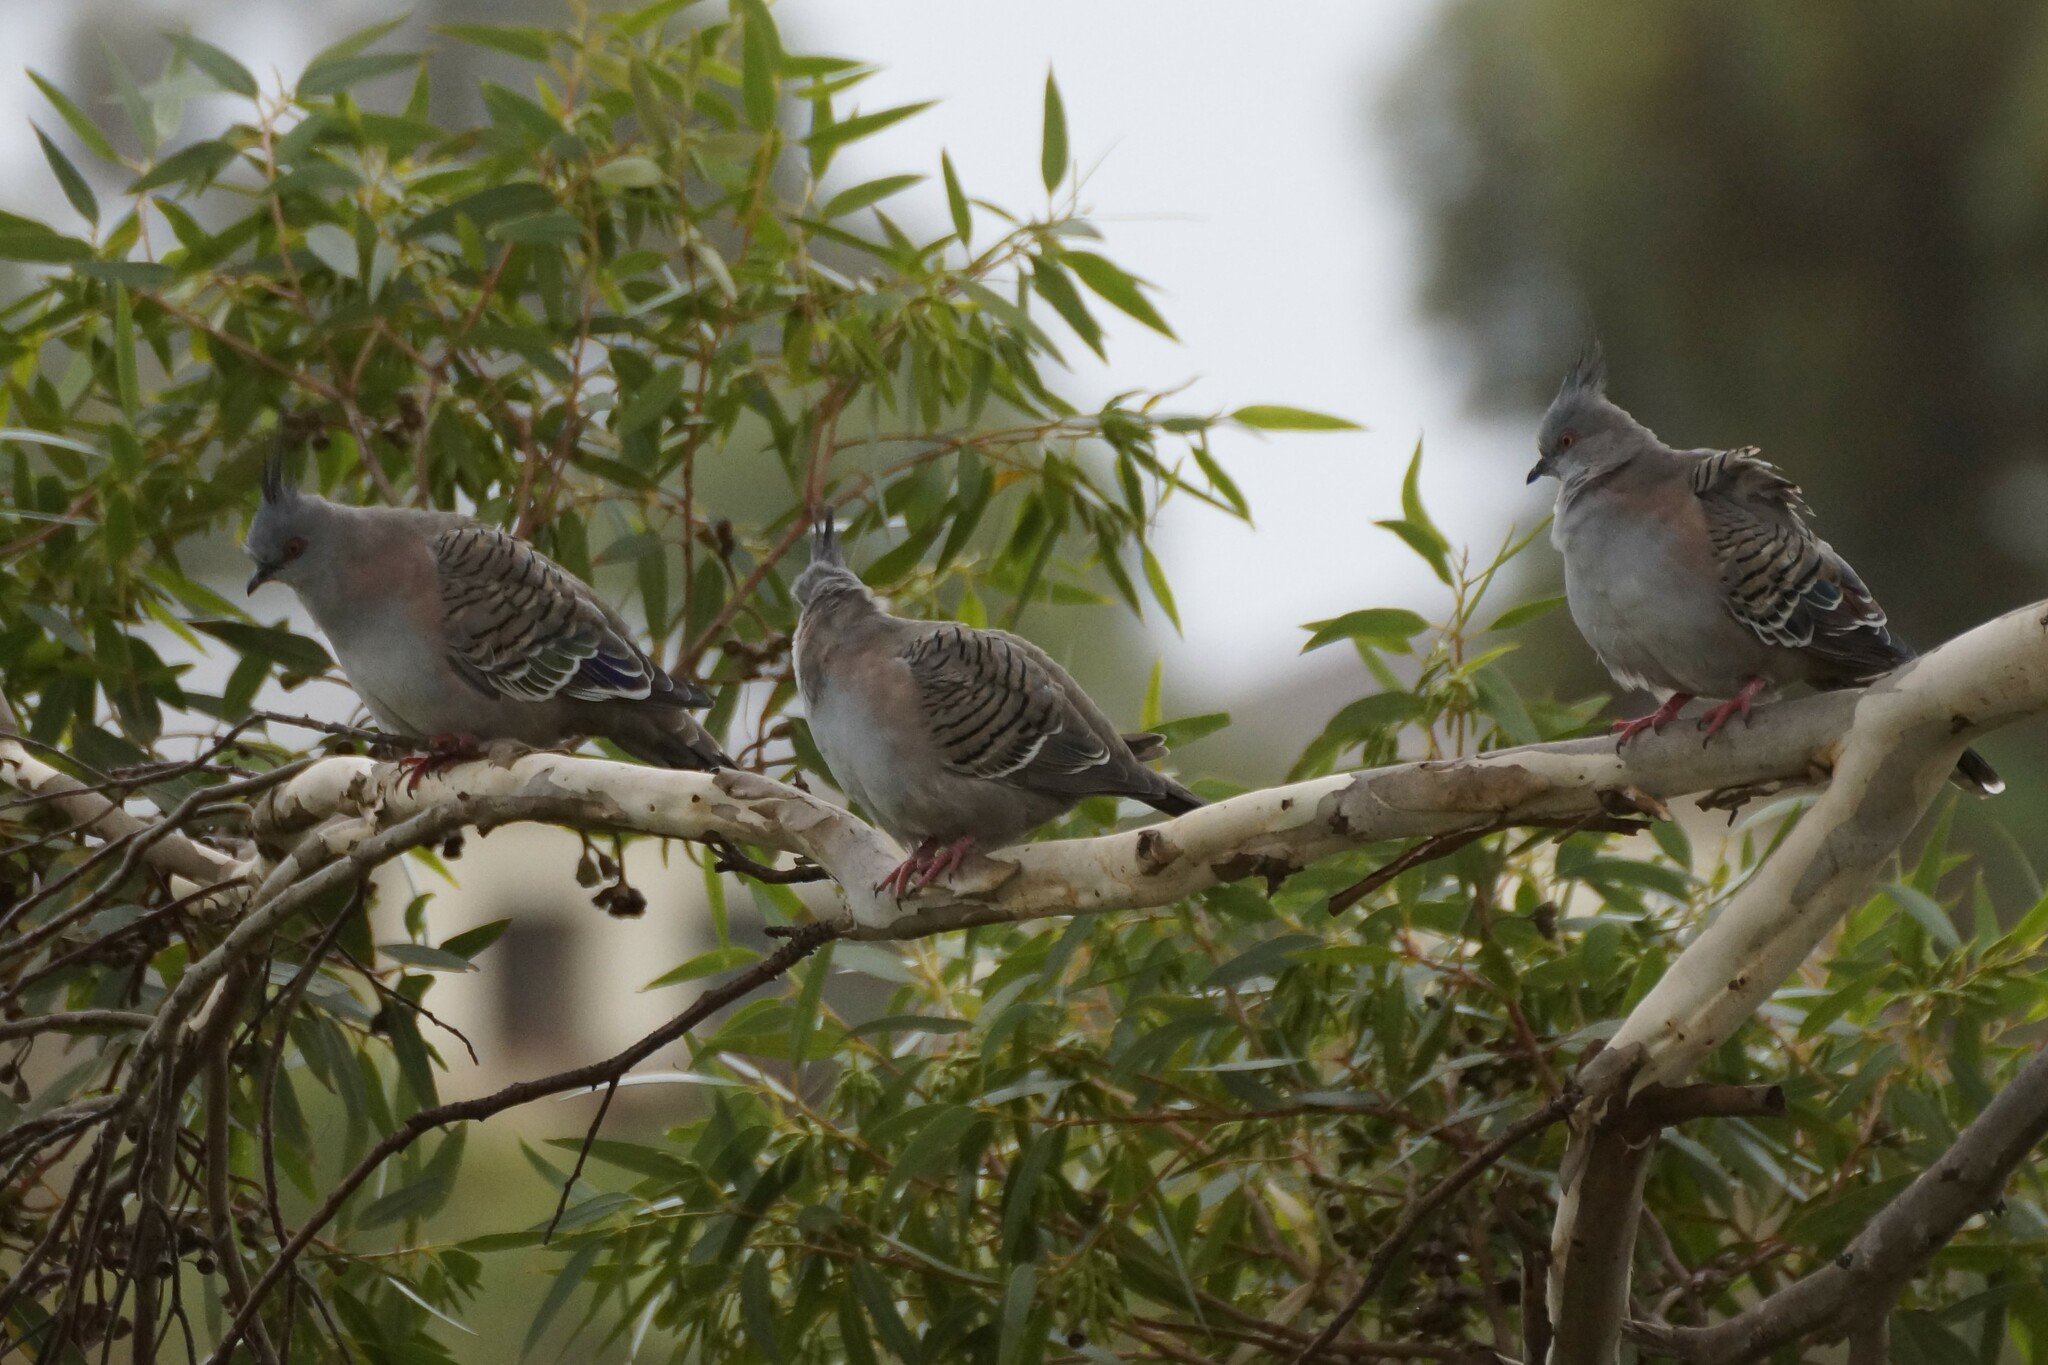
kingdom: Animalia
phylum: Chordata
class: Aves
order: Columbiformes
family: Columbidae
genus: Ocyphaps
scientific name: Ocyphaps lophotes
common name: Crested pigeon
